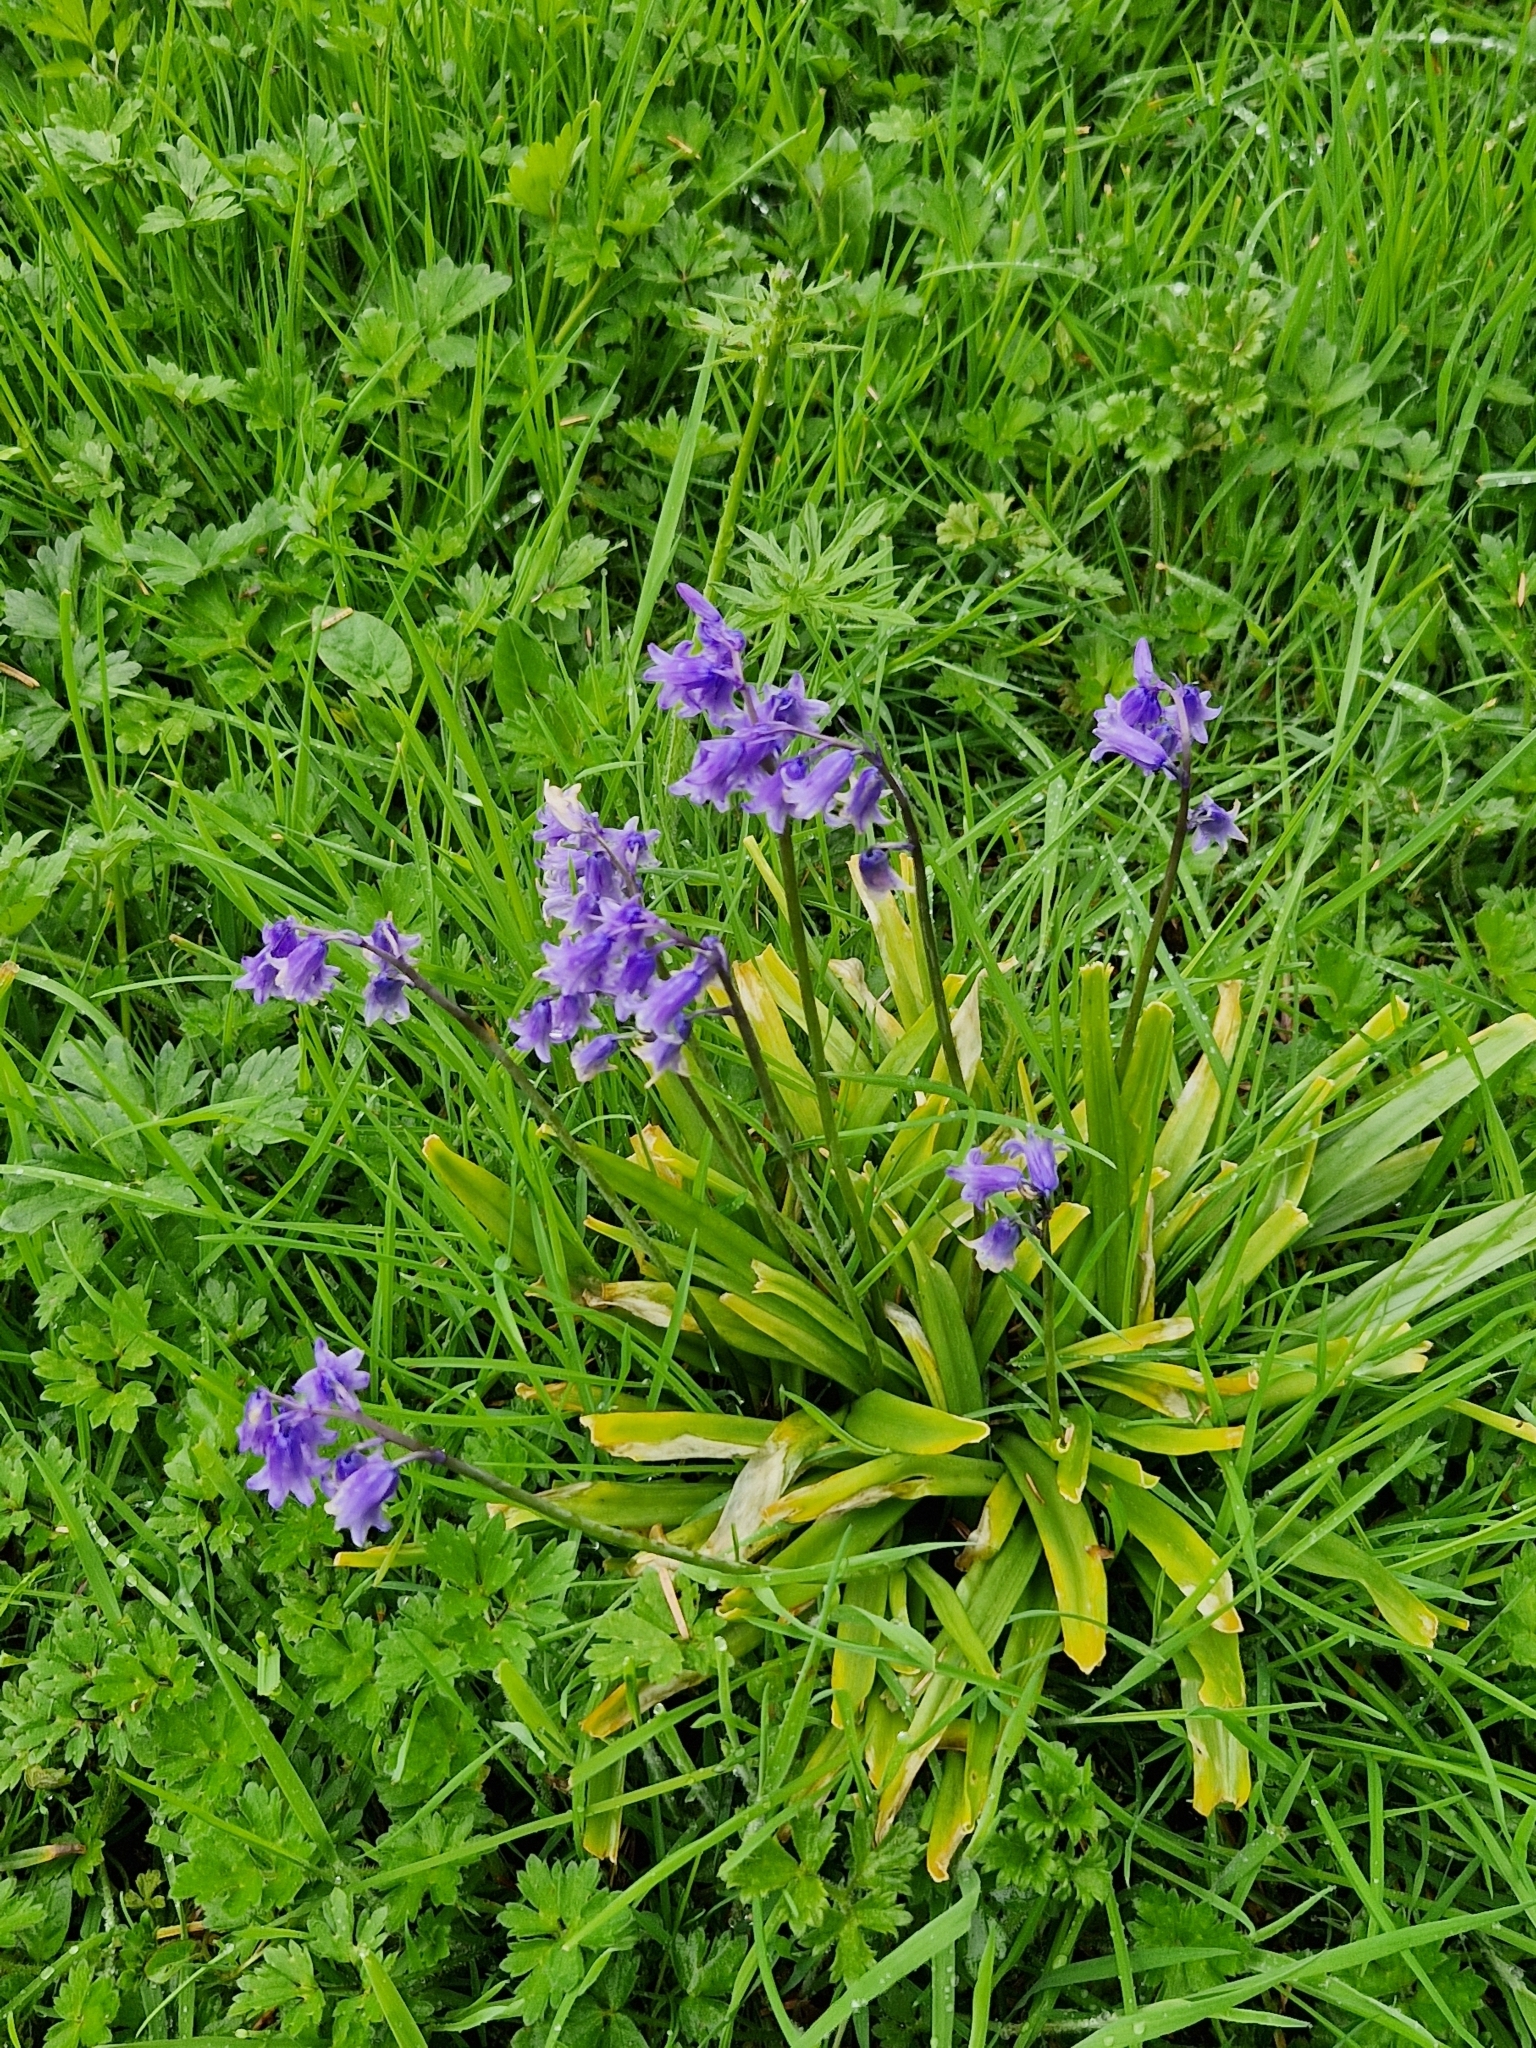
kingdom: Plantae
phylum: Tracheophyta
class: Liliopsida
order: Asparagales
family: Asparagaceae
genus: Hyacinthoides
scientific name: Hyacinthoides non-scripta
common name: Bluebell
